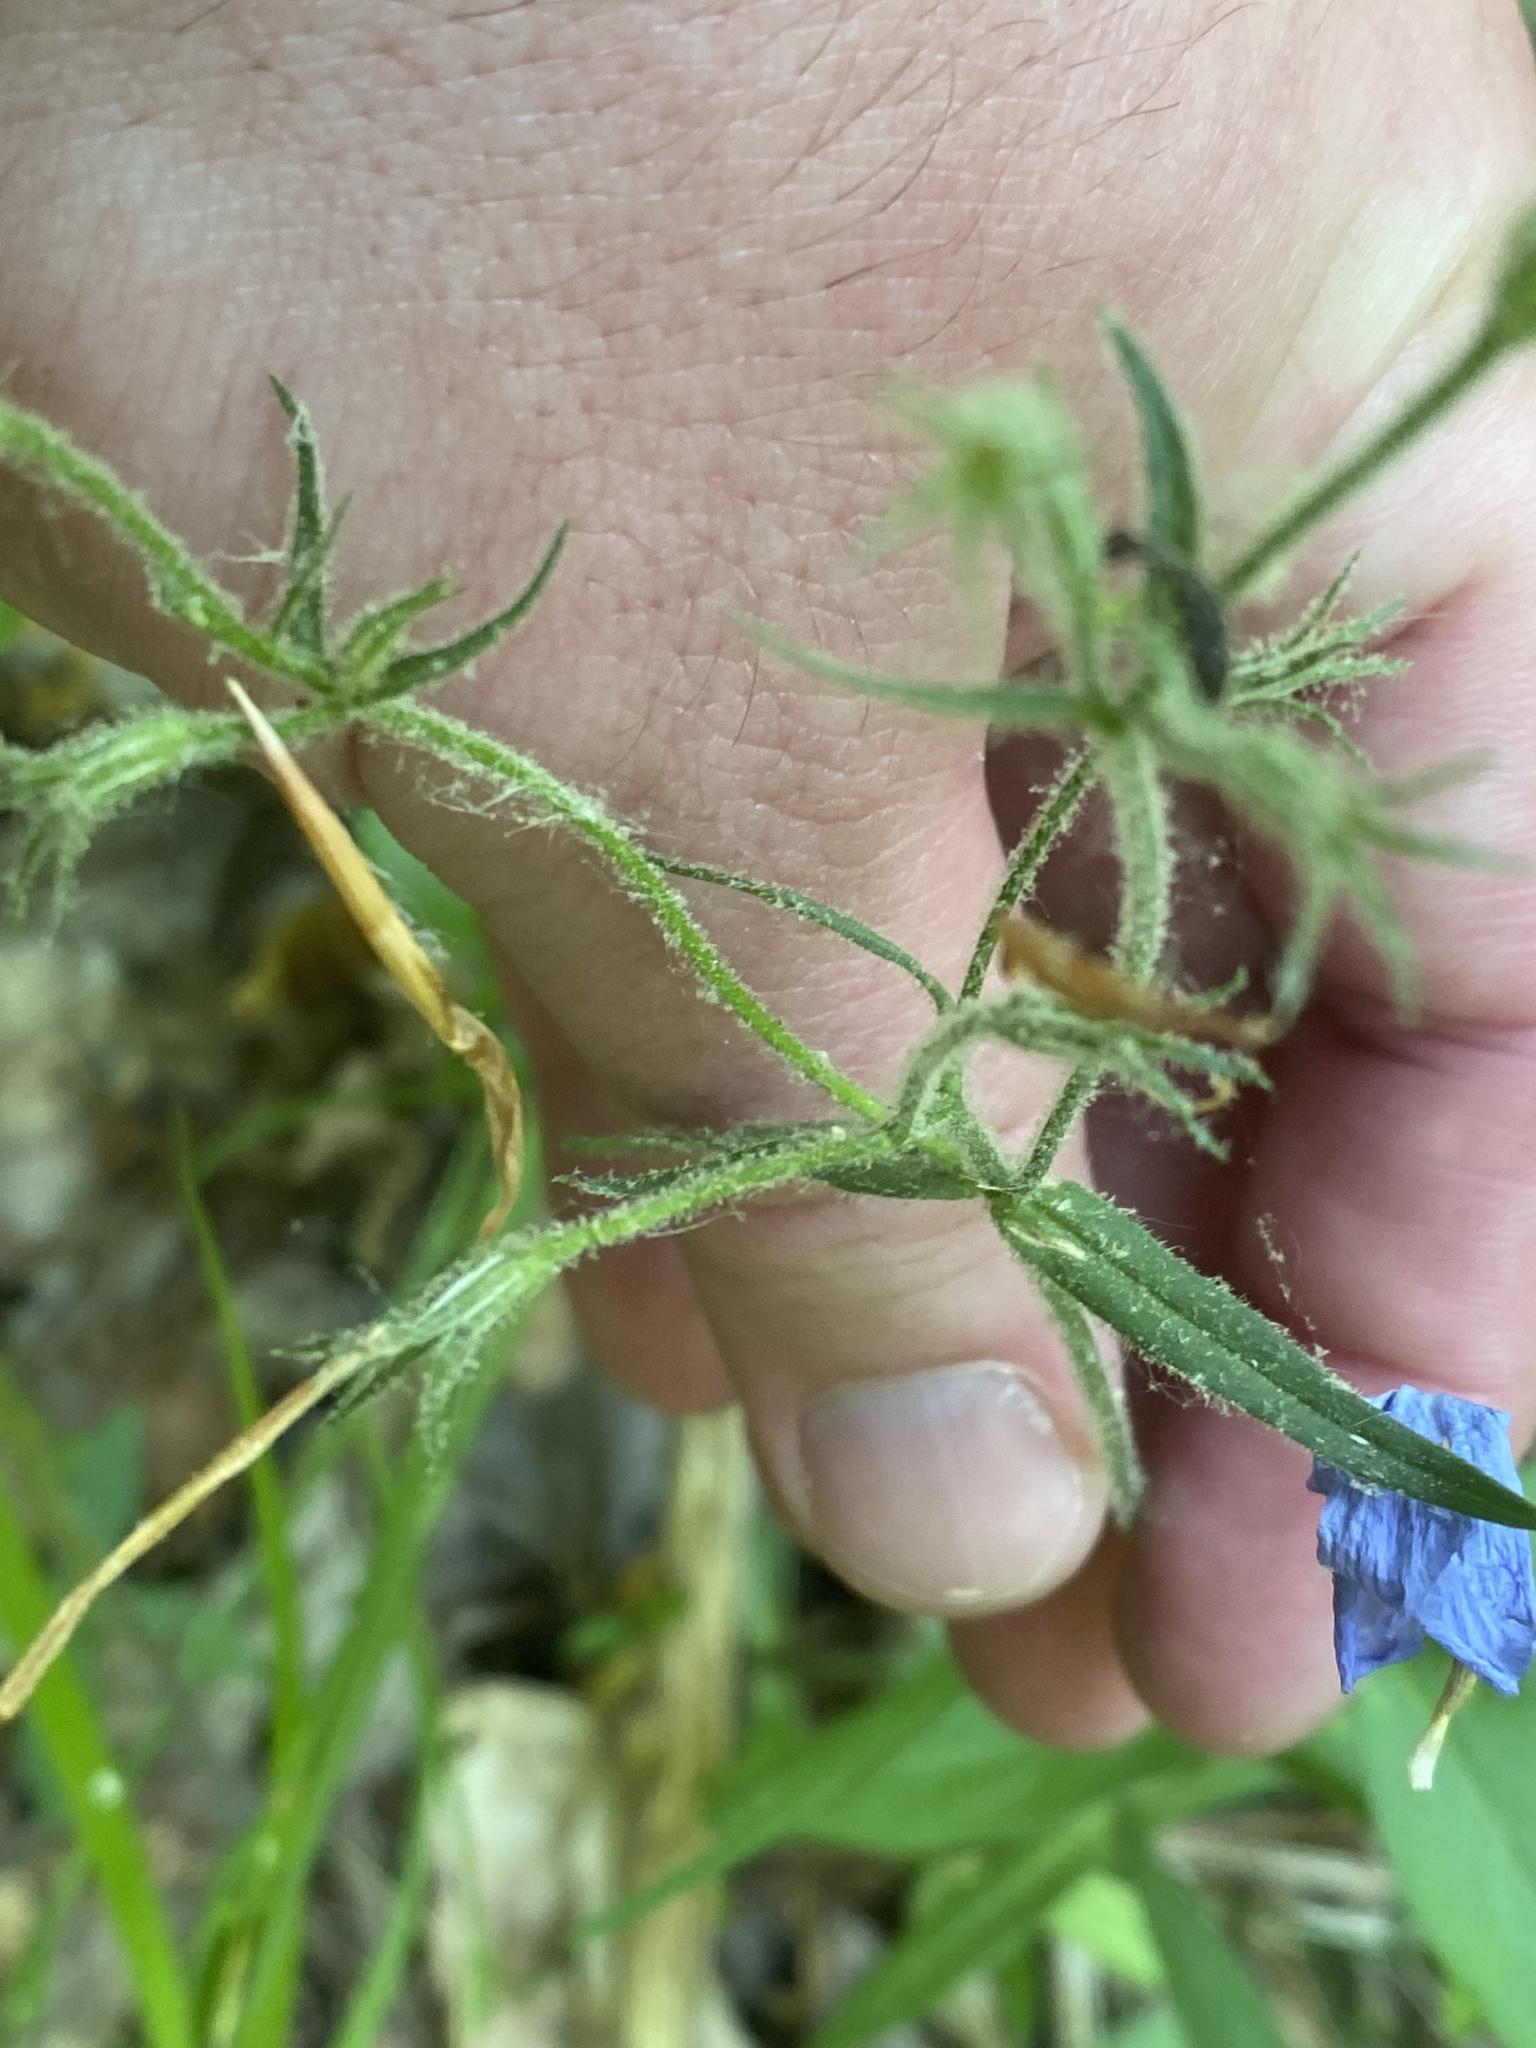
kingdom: Plantae
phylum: Tracheophyta
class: Magnoliopsida
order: Ericales
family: Polemoniaceae
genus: Phlox
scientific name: Phlox divaricata
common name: Blue phlox
